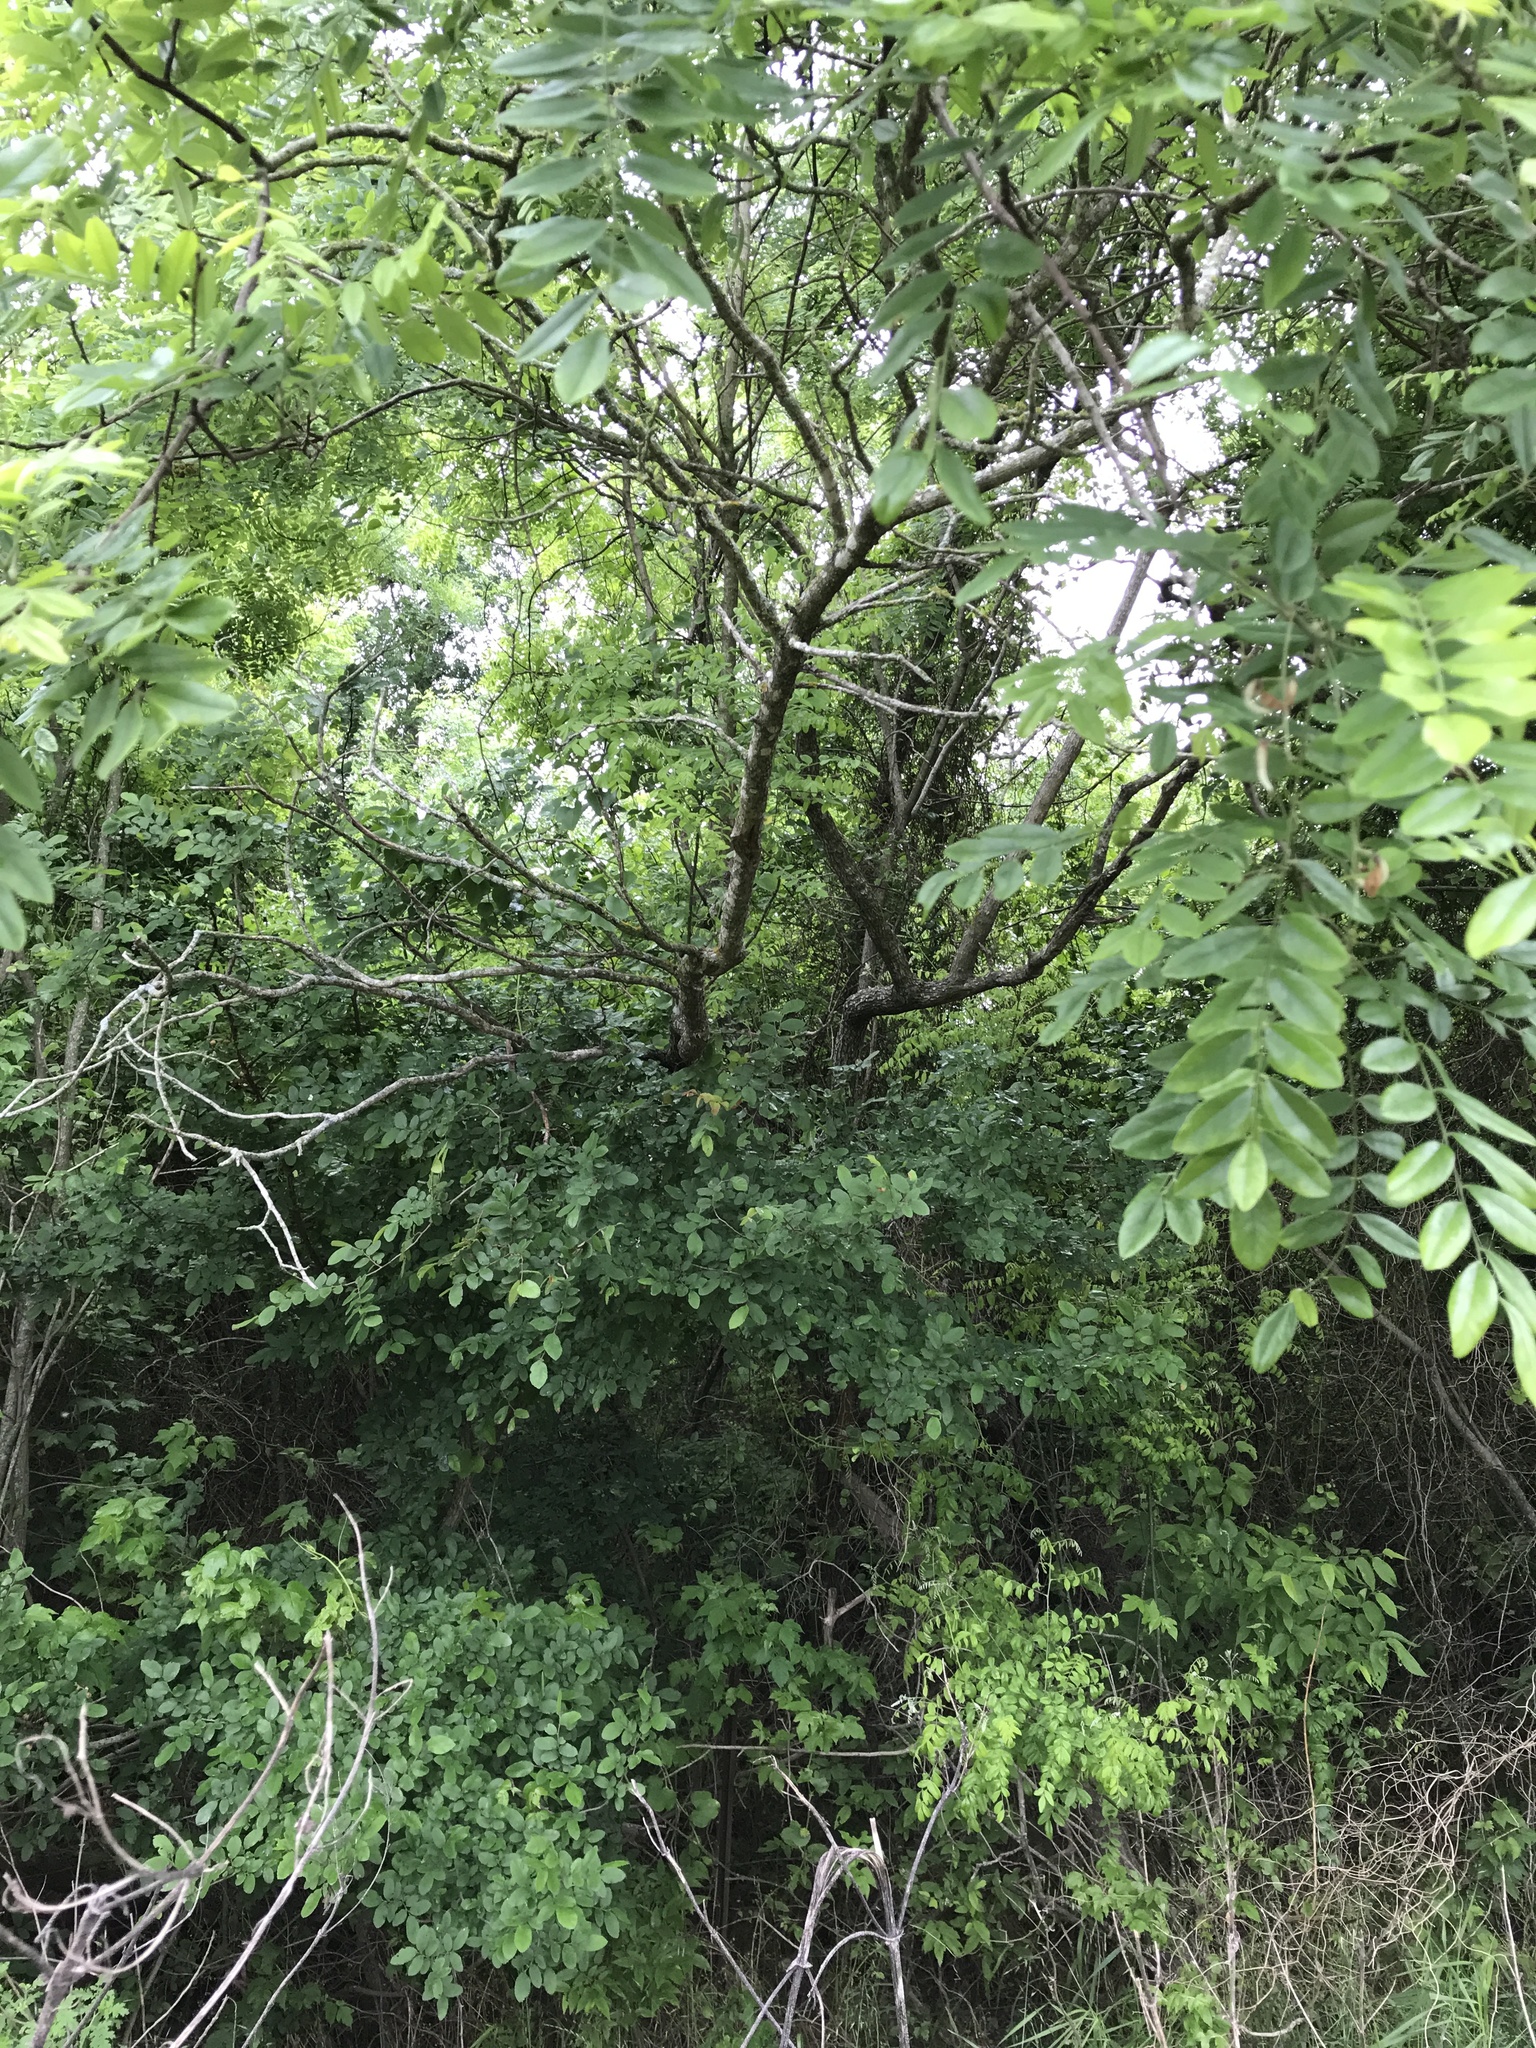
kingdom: Plantae
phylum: Tracheophyta
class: Magnoliopsida
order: Fabales
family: Fabaceae
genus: Styphnolobium
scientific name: Styphnolobium affine
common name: Texas sophora
